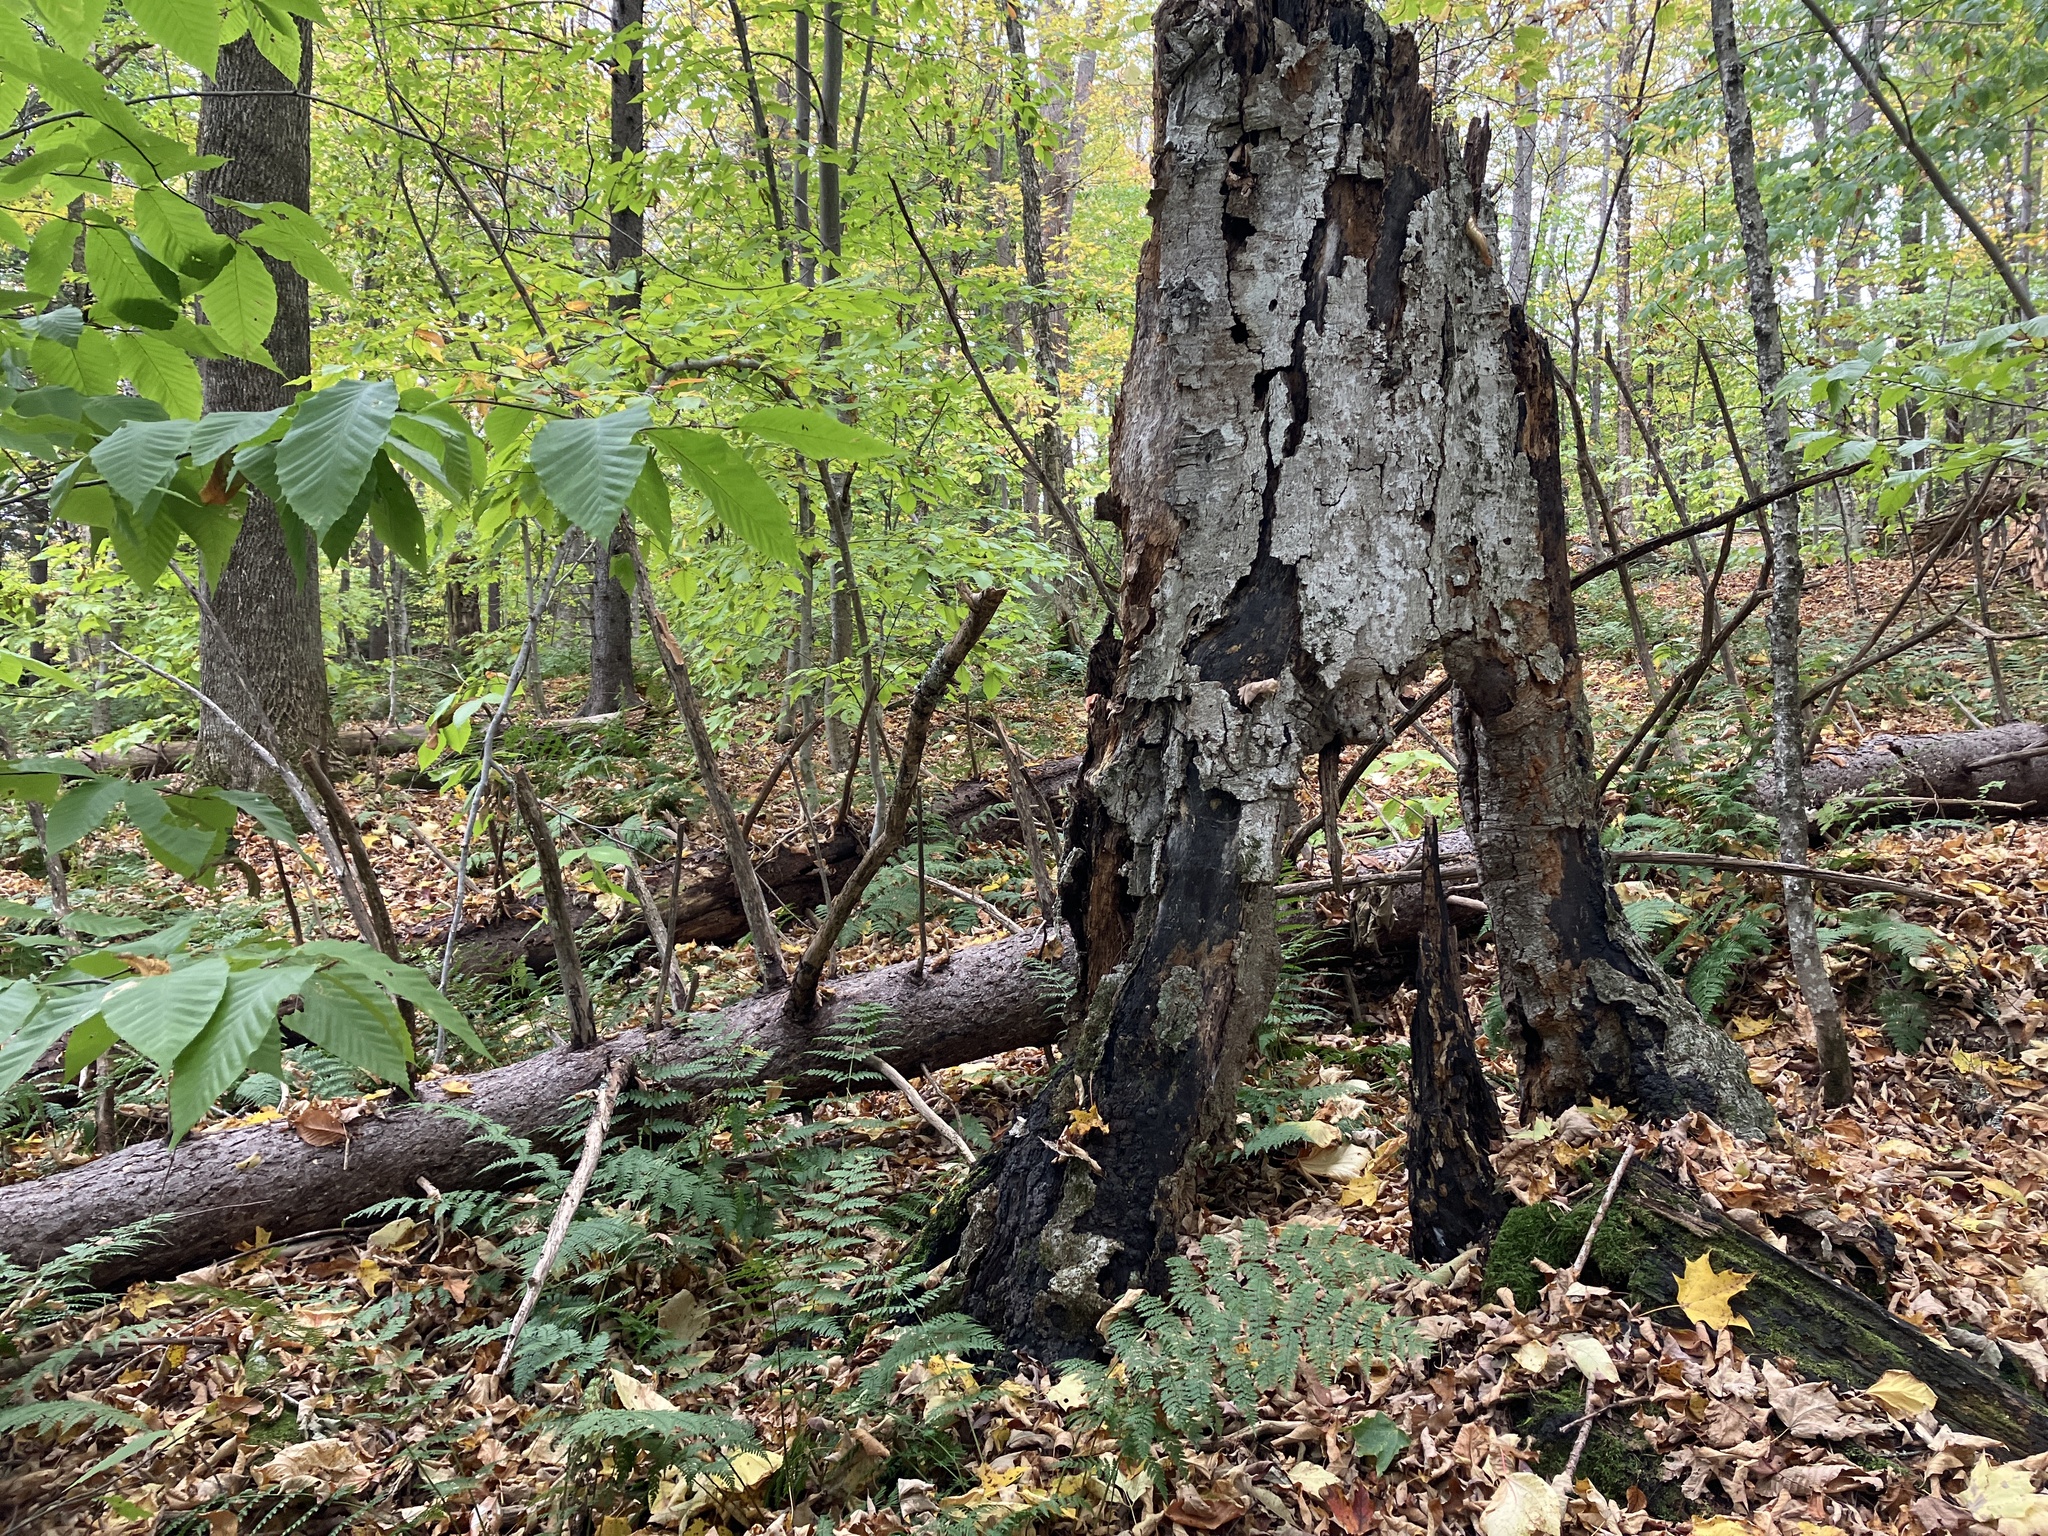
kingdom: Plantae
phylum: Tracheophyta
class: Magnoliopsida
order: Fagales
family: Fagaceae
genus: Fagus
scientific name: Fagus grandifolia
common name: American beech
